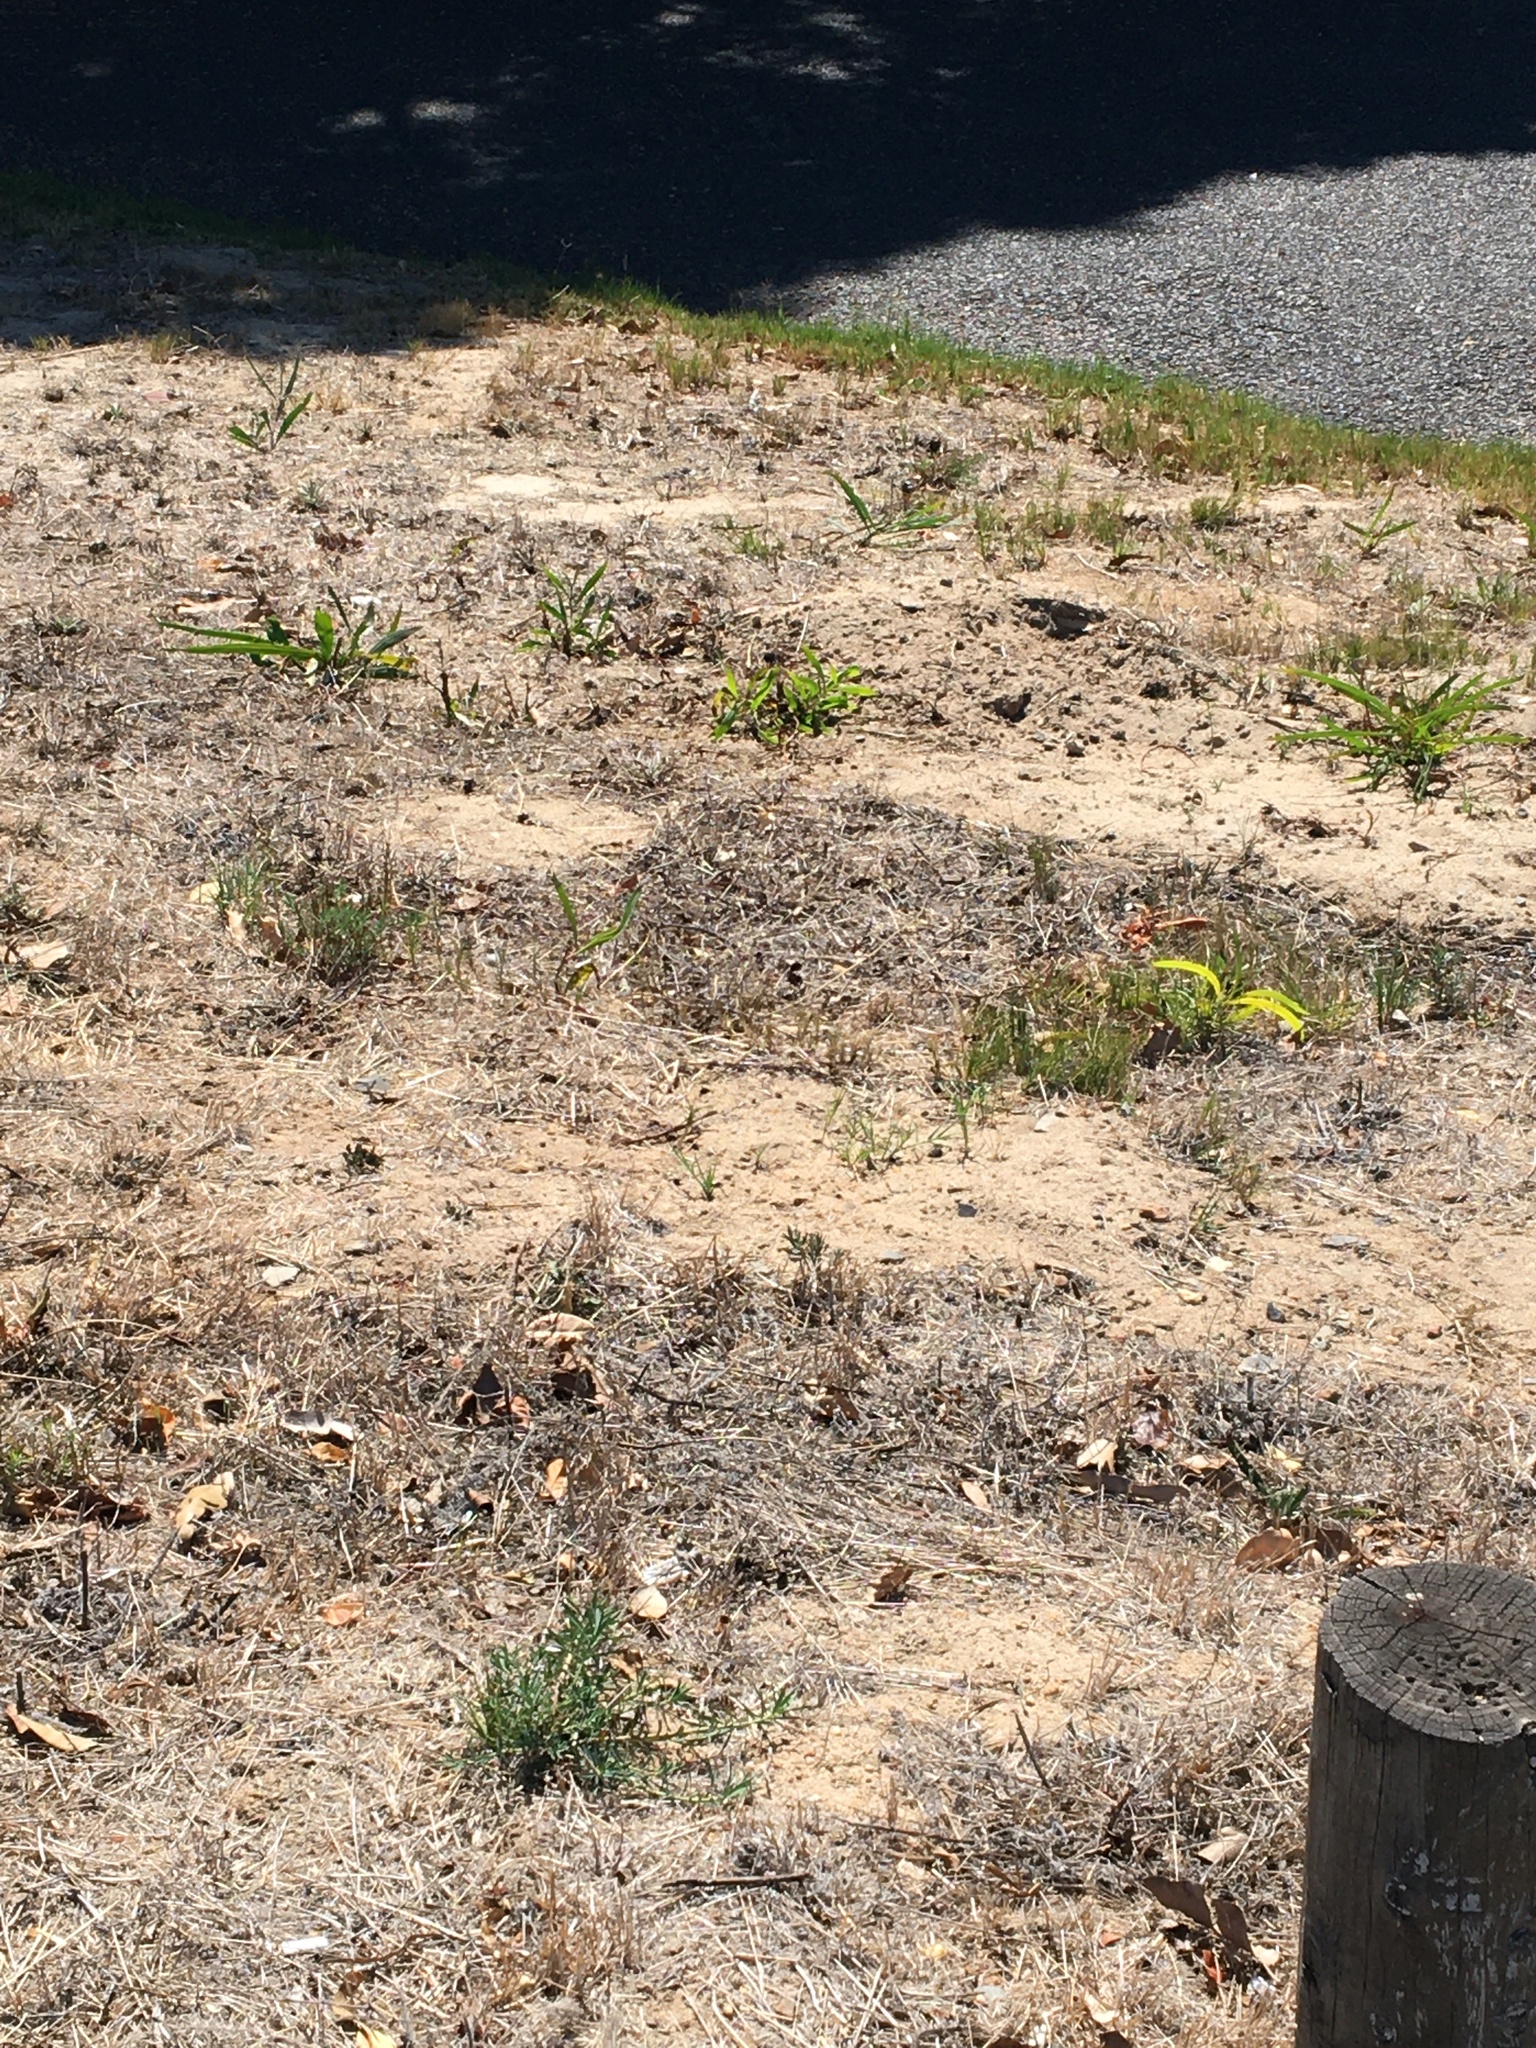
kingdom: Plantae
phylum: Tracheophyta
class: Magnoliopsida
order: Fabales
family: Fabaceae
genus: Acacia
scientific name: Acacia saligna
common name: Orange wattle
